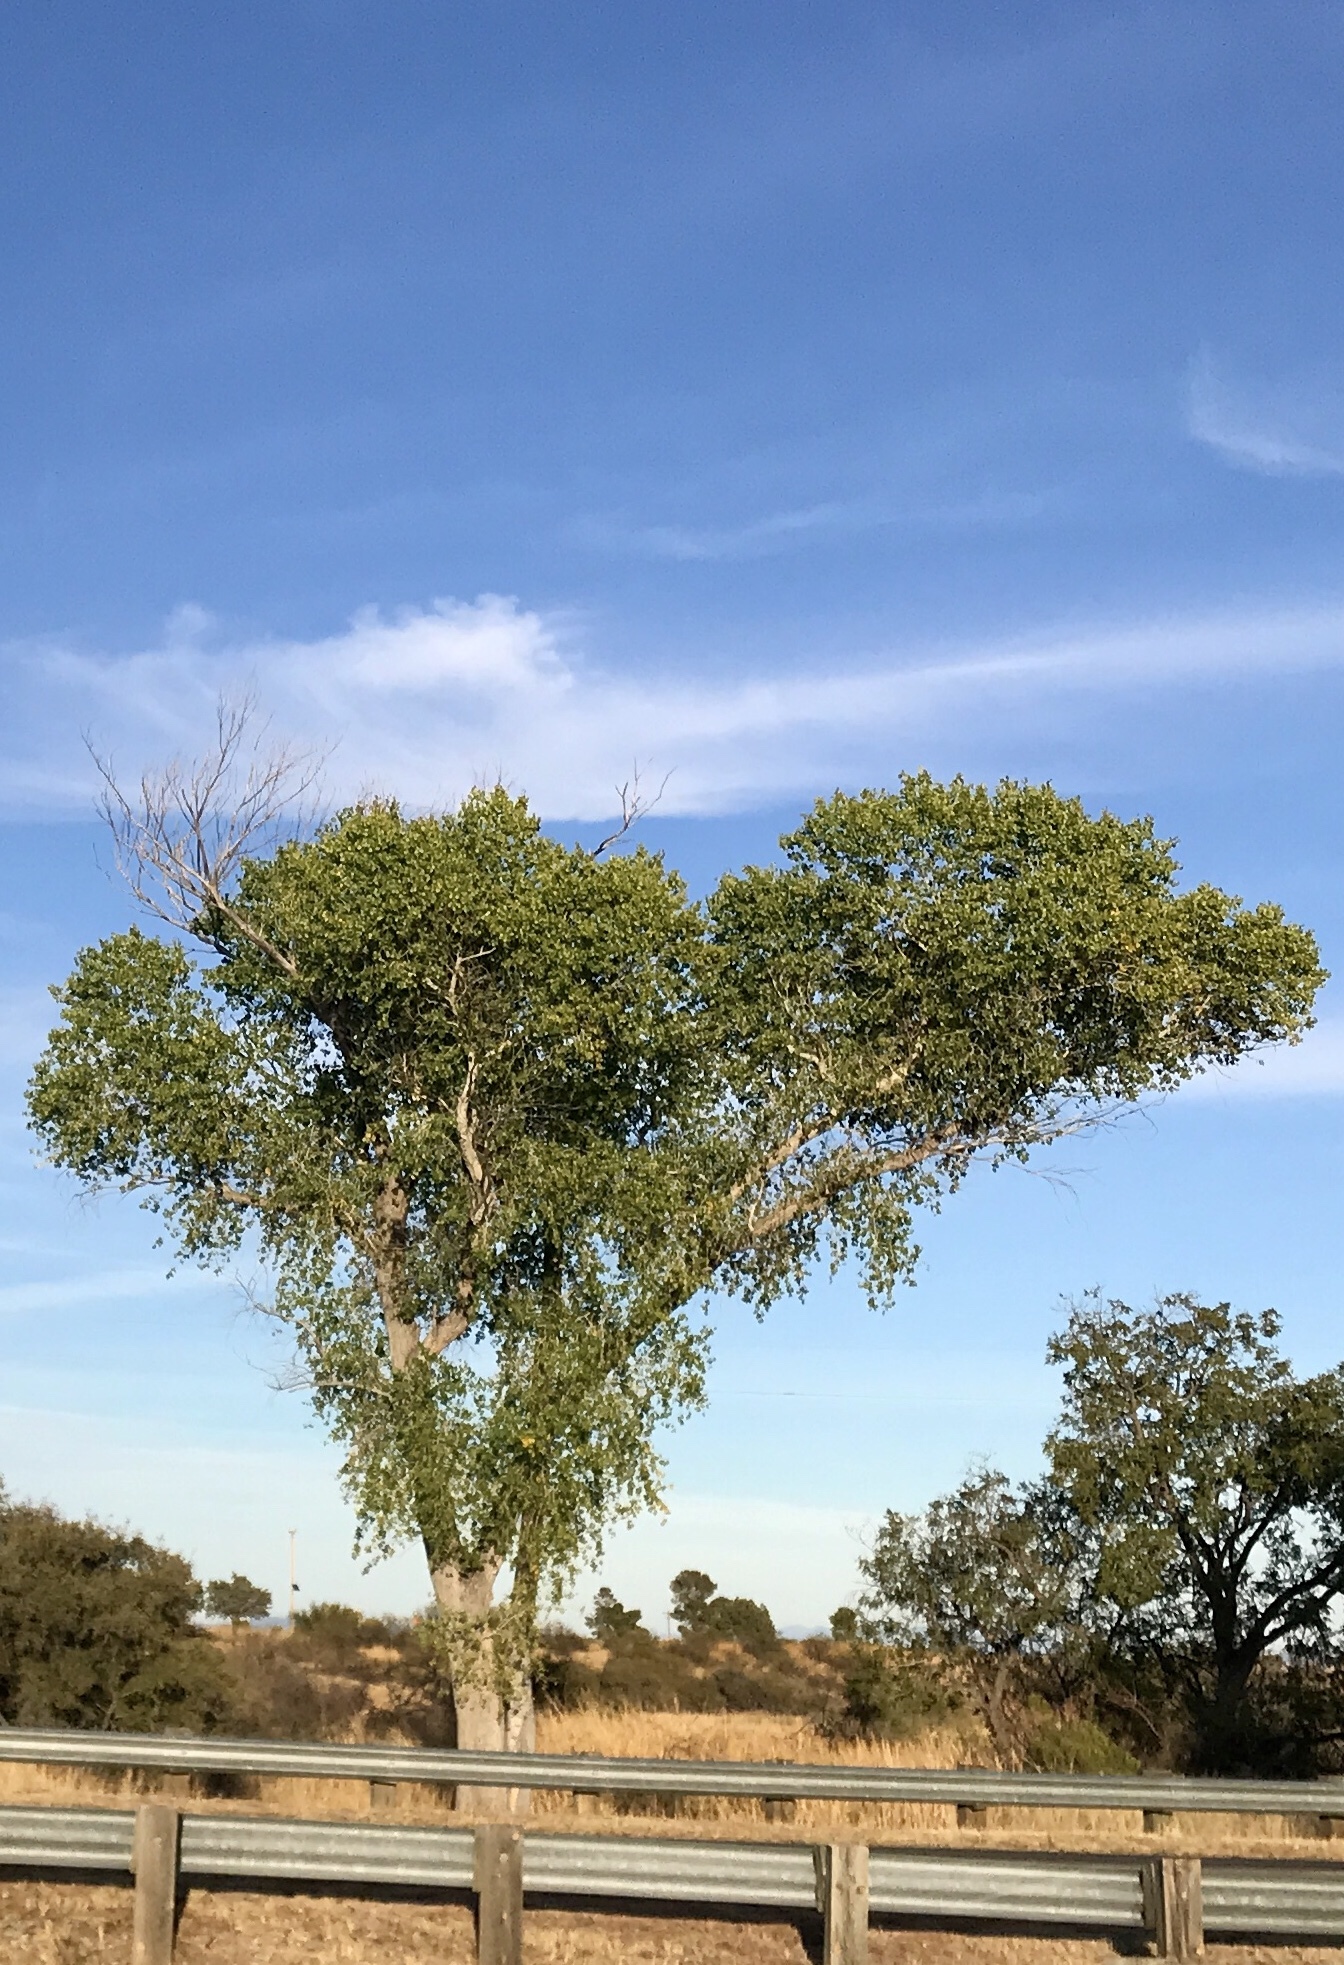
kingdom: Plantae
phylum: Tracheophyta
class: Magnoliopsida
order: Malpighiales
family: Salicaceae
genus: Populus
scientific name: Populus fremontii
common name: Fremont's cottonwood
